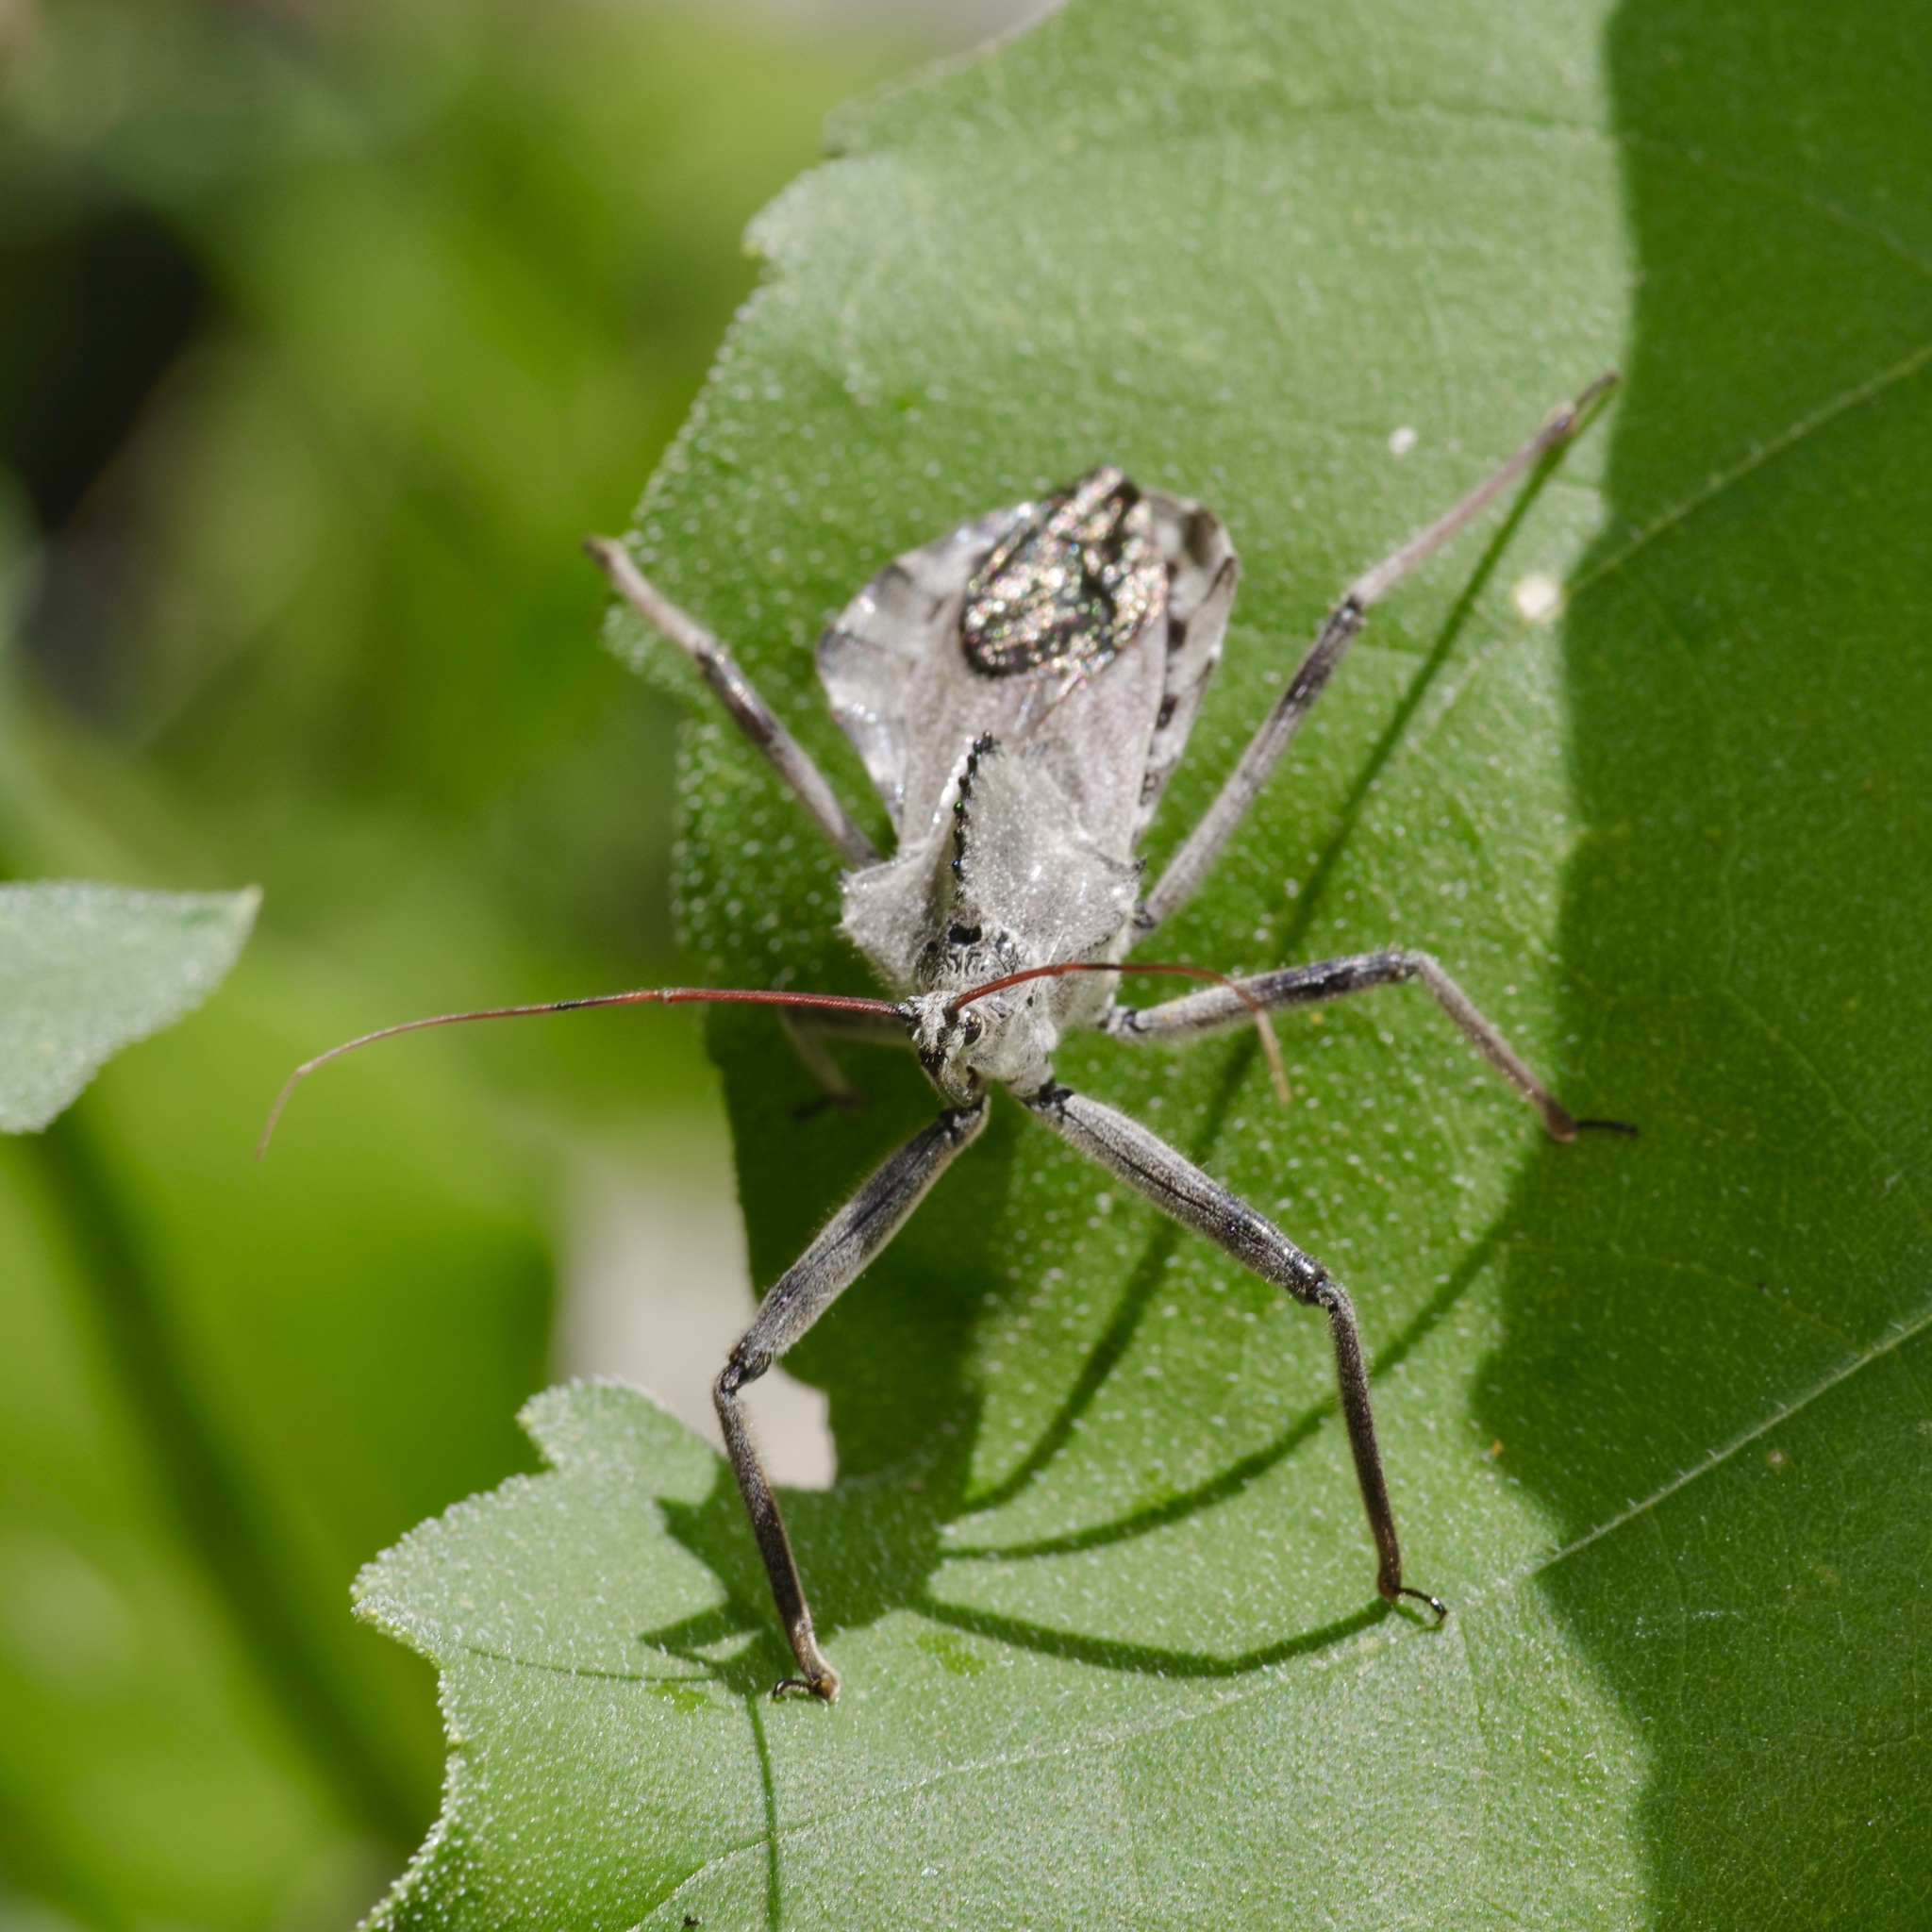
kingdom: Animalia
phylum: Arthropoda
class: Insecta
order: Hemiptera
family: Reduviidae
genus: Arilus
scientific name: Arilus cristatus
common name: North american wheel bug
